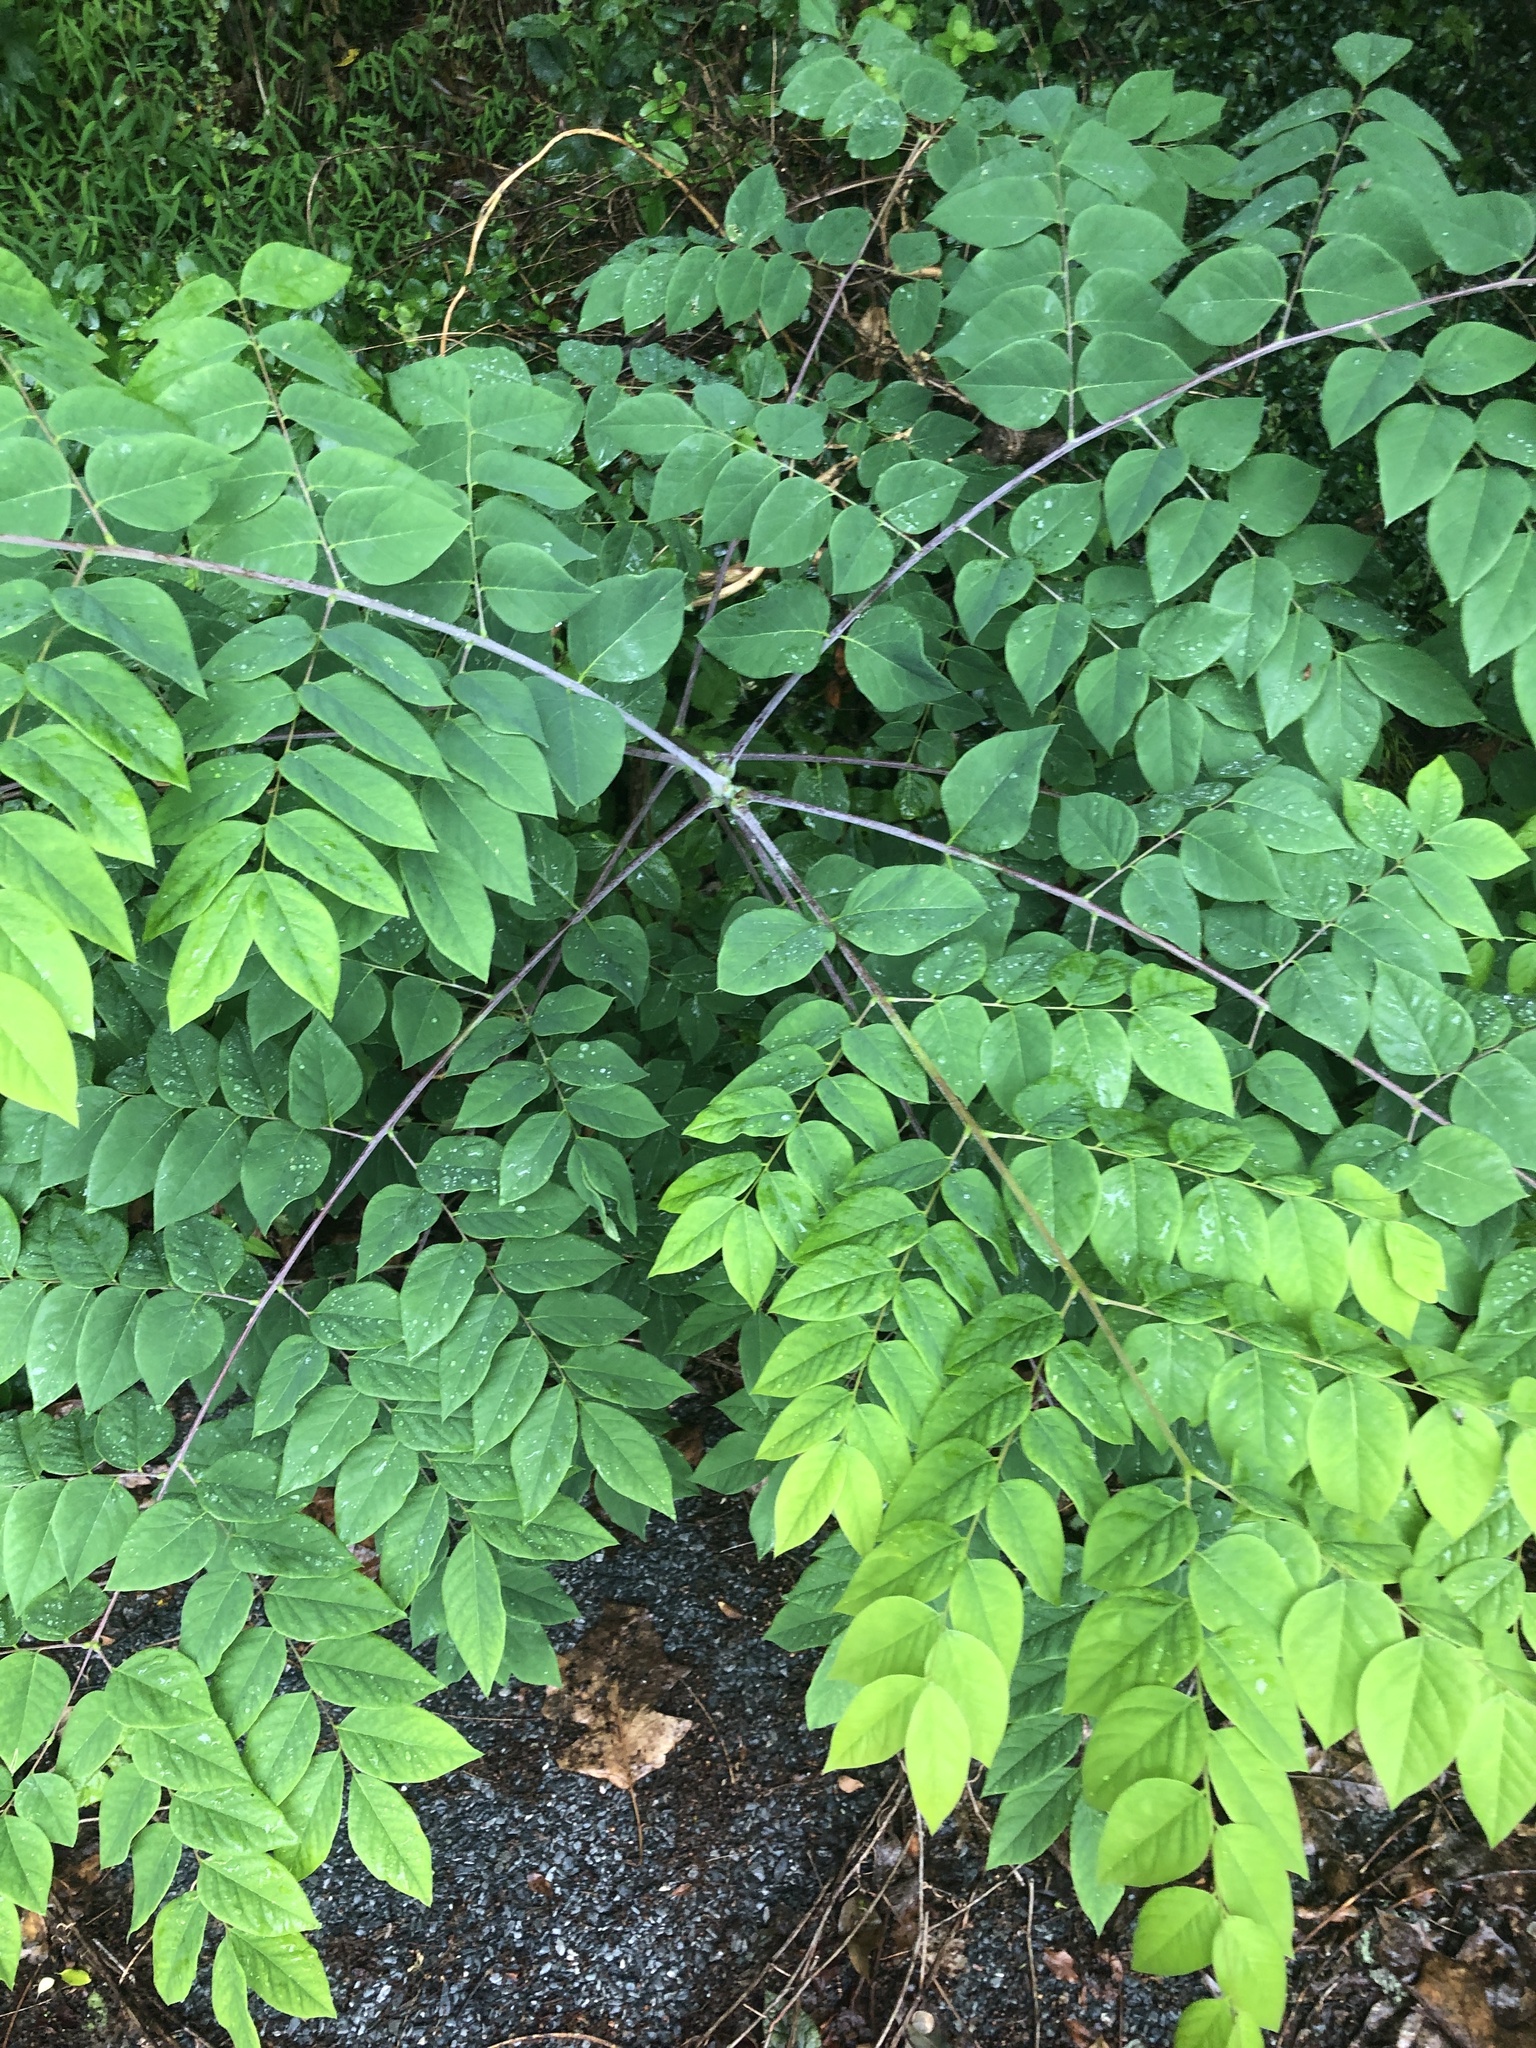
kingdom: Plantae
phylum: Tracheophyta
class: Magnoliopsida
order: Fabales
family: Fabaceae
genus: Gymnocladus
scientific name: Gymnocladus dioicus
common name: Kentucky coffee-tree
